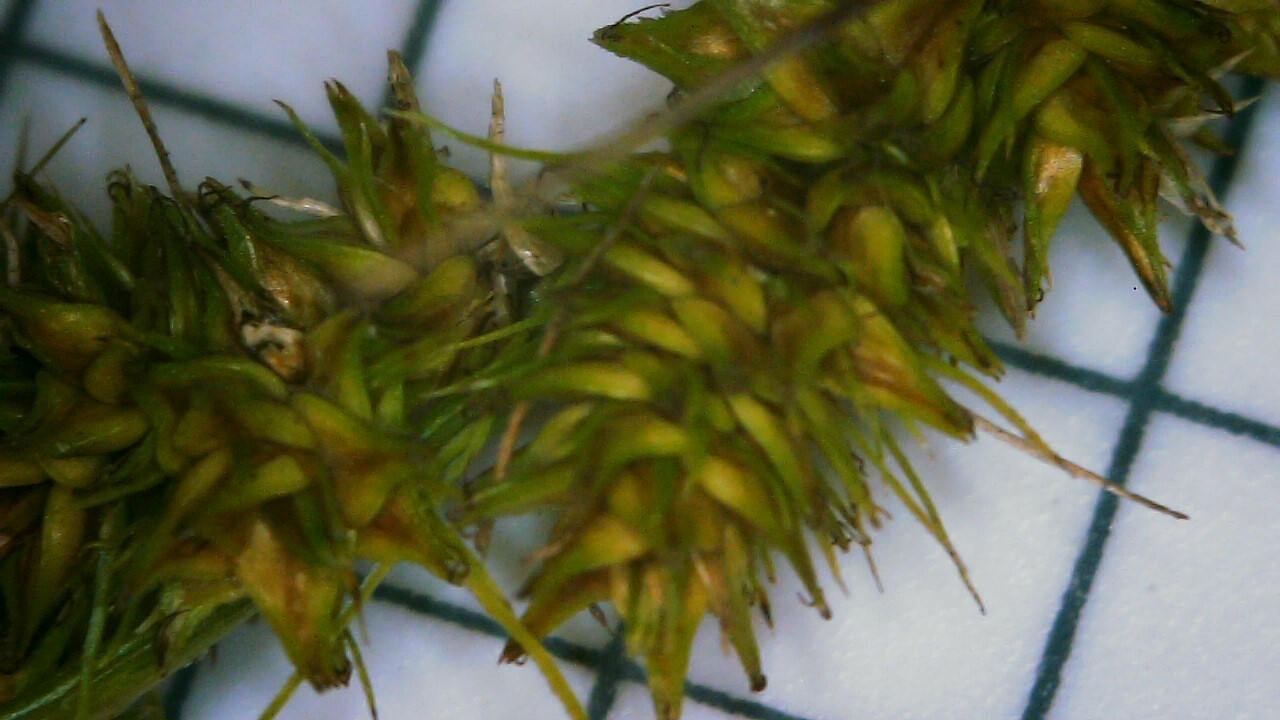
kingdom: Plantae
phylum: Tracheophyta
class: Liliopsida
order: Poales
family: Cyperaceae
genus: Carex
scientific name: Carex vulpinoidea
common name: American fox-sedge
